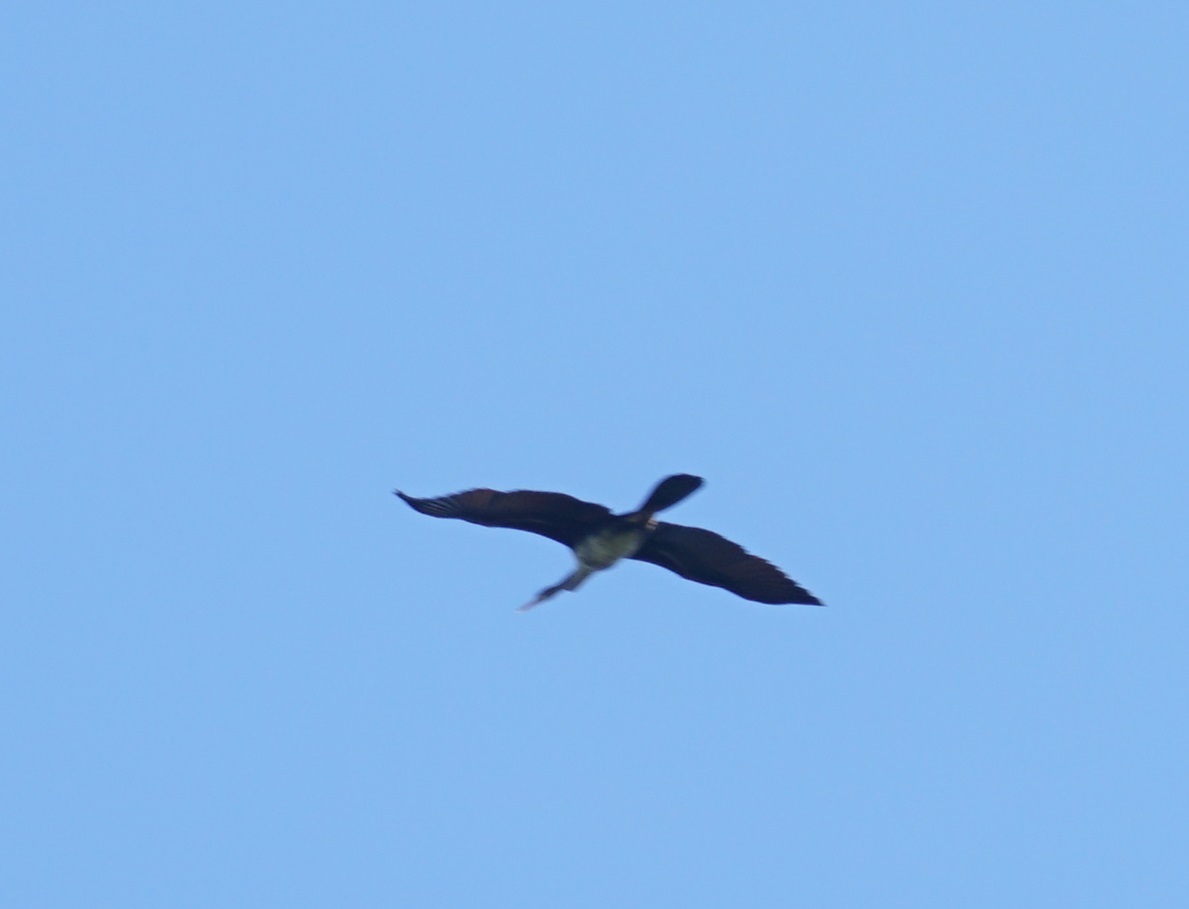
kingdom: Animalia
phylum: Chordata
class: Aves
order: Suliformes
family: Anhingidae
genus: Anhinga
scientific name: Anhinga novaehollandiae
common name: Australasian darter
